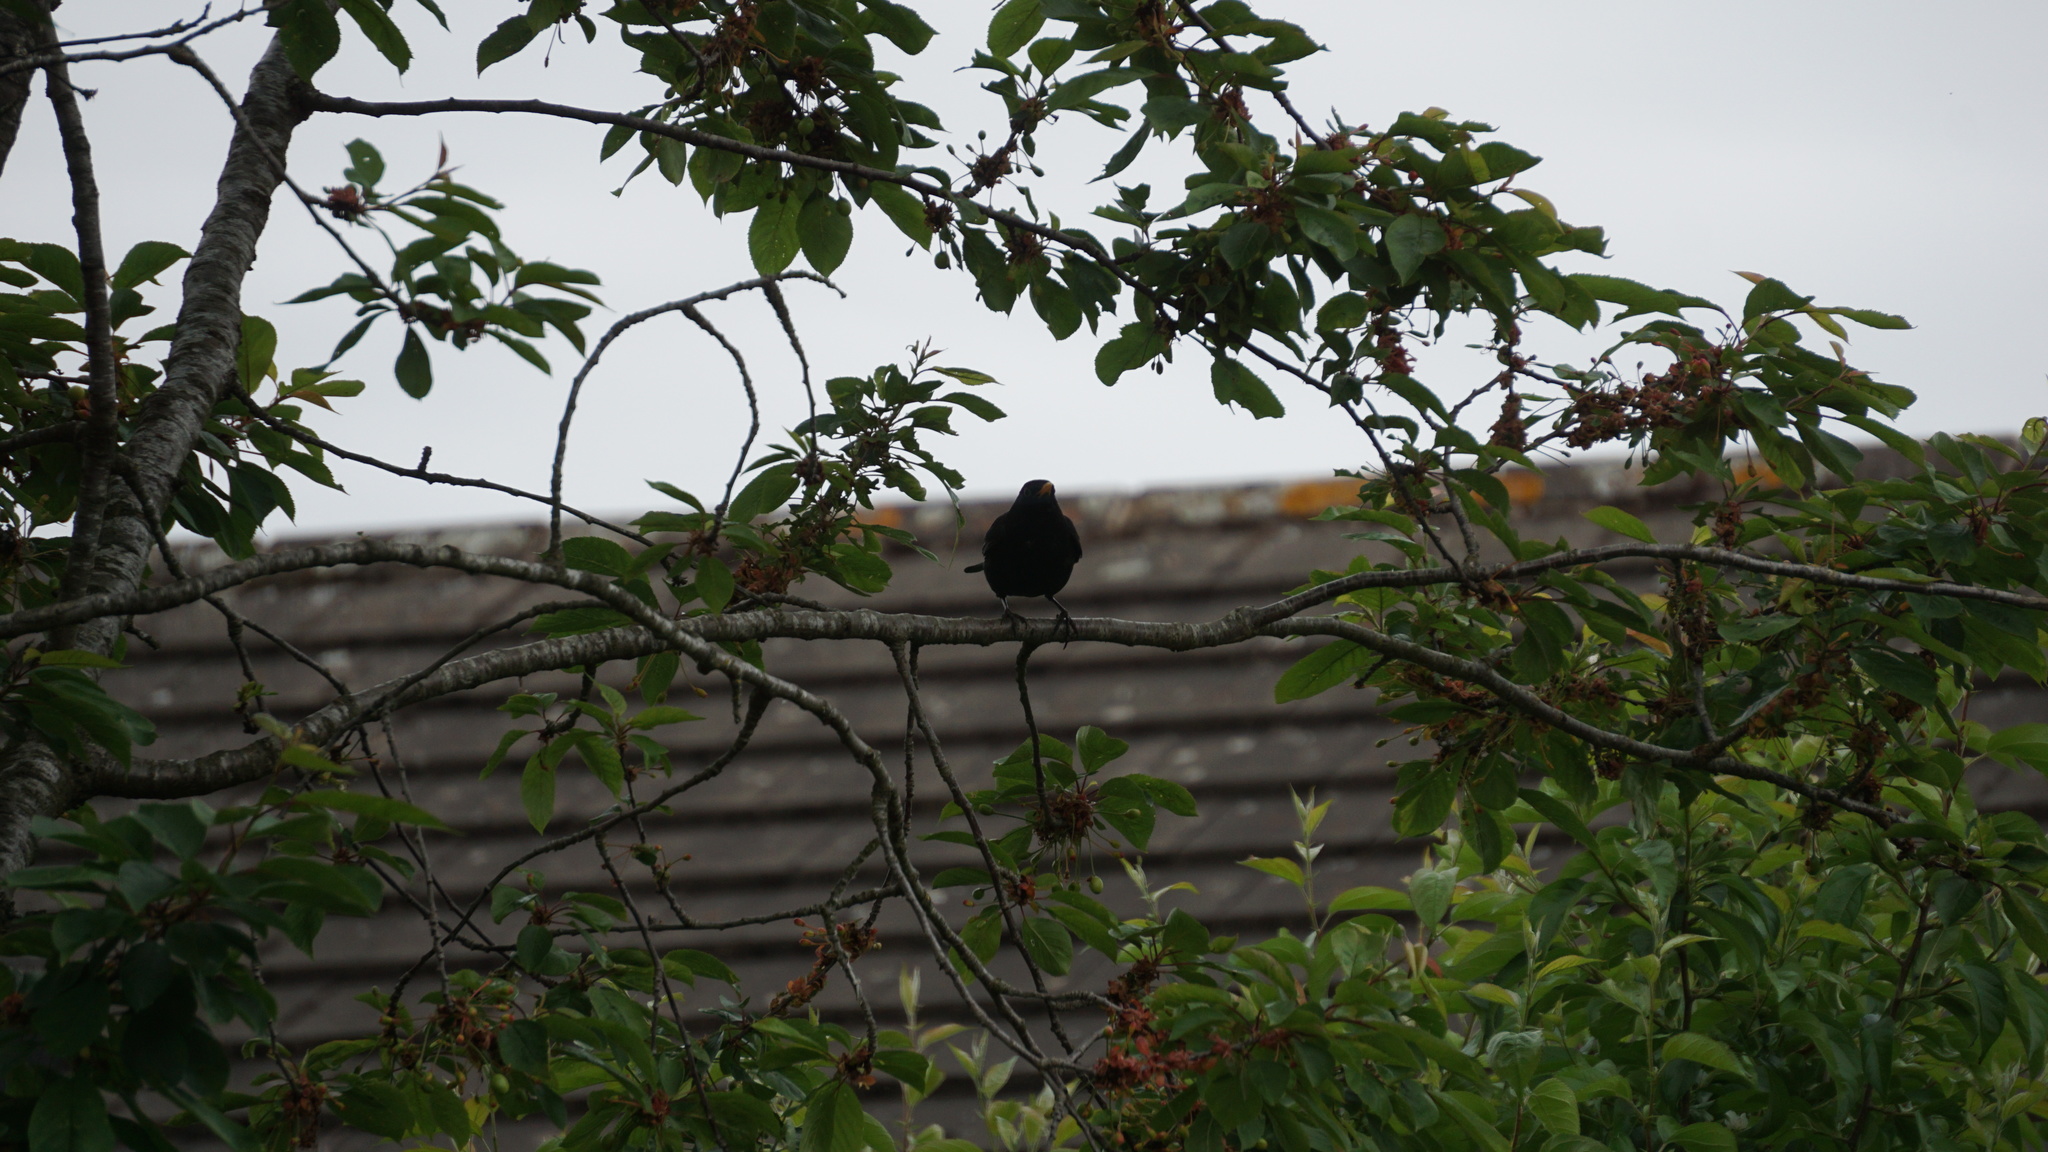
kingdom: Animalia
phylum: Chordata
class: Aves
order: Passeriformes
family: Turdidae
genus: Turdus
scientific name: Turdus merula
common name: Common blackbird
